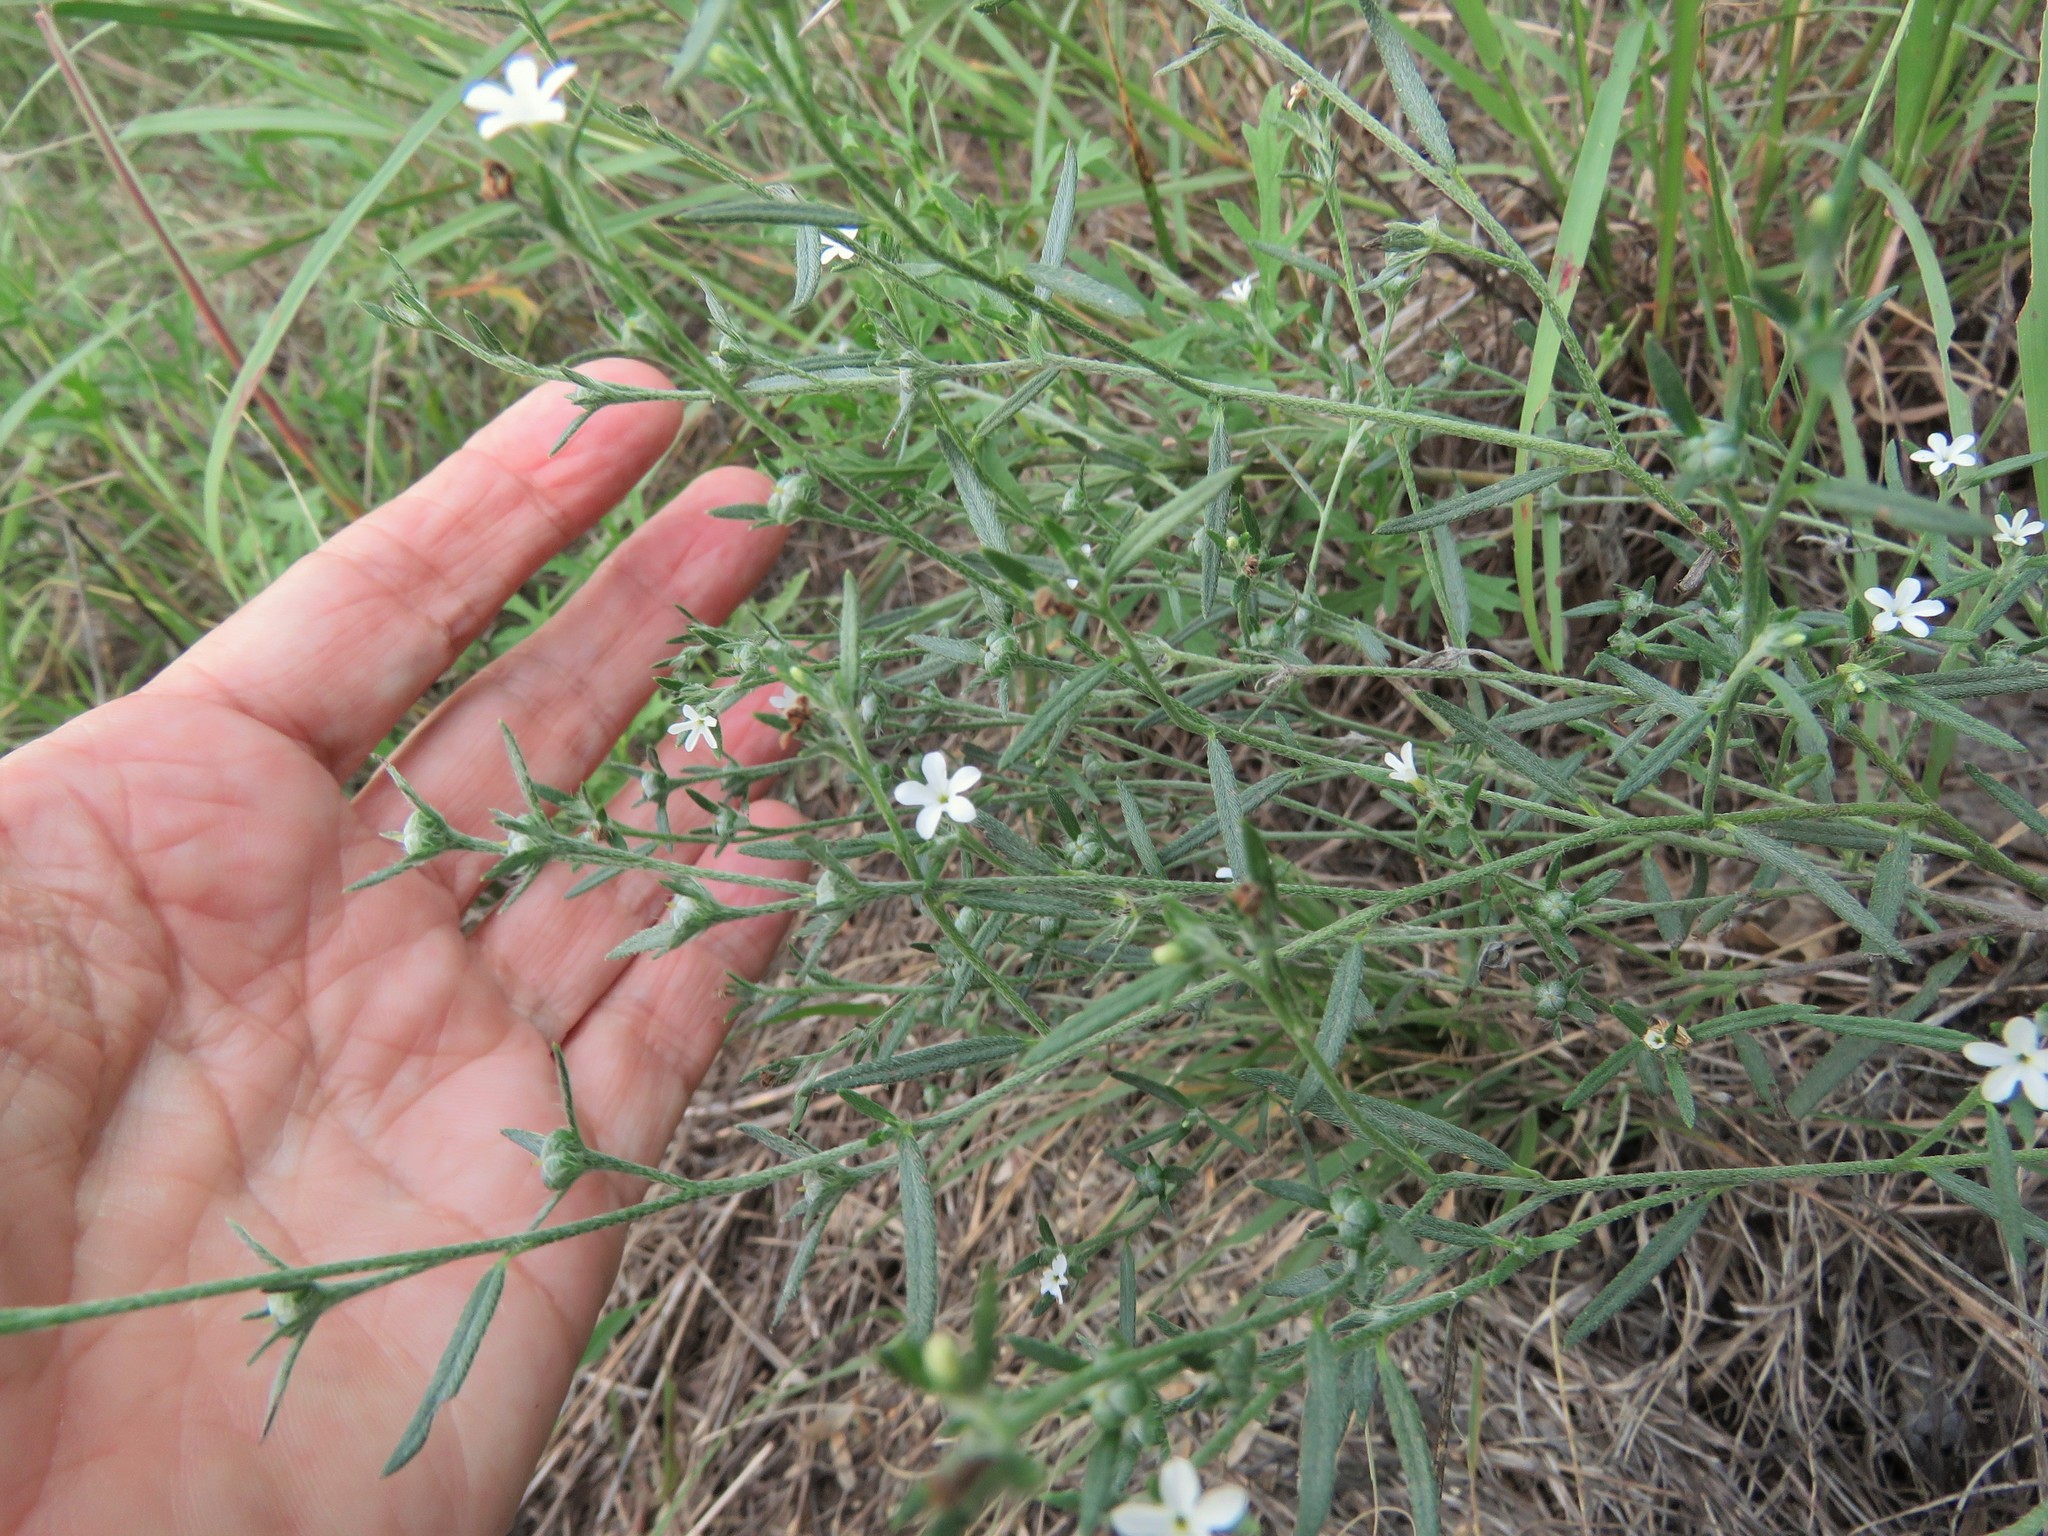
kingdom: Plantae
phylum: Tracheophyta
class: Magnoliopsida
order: Boraginales
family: Heliotropiaceae
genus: Euploca
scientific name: Euploca tenella
